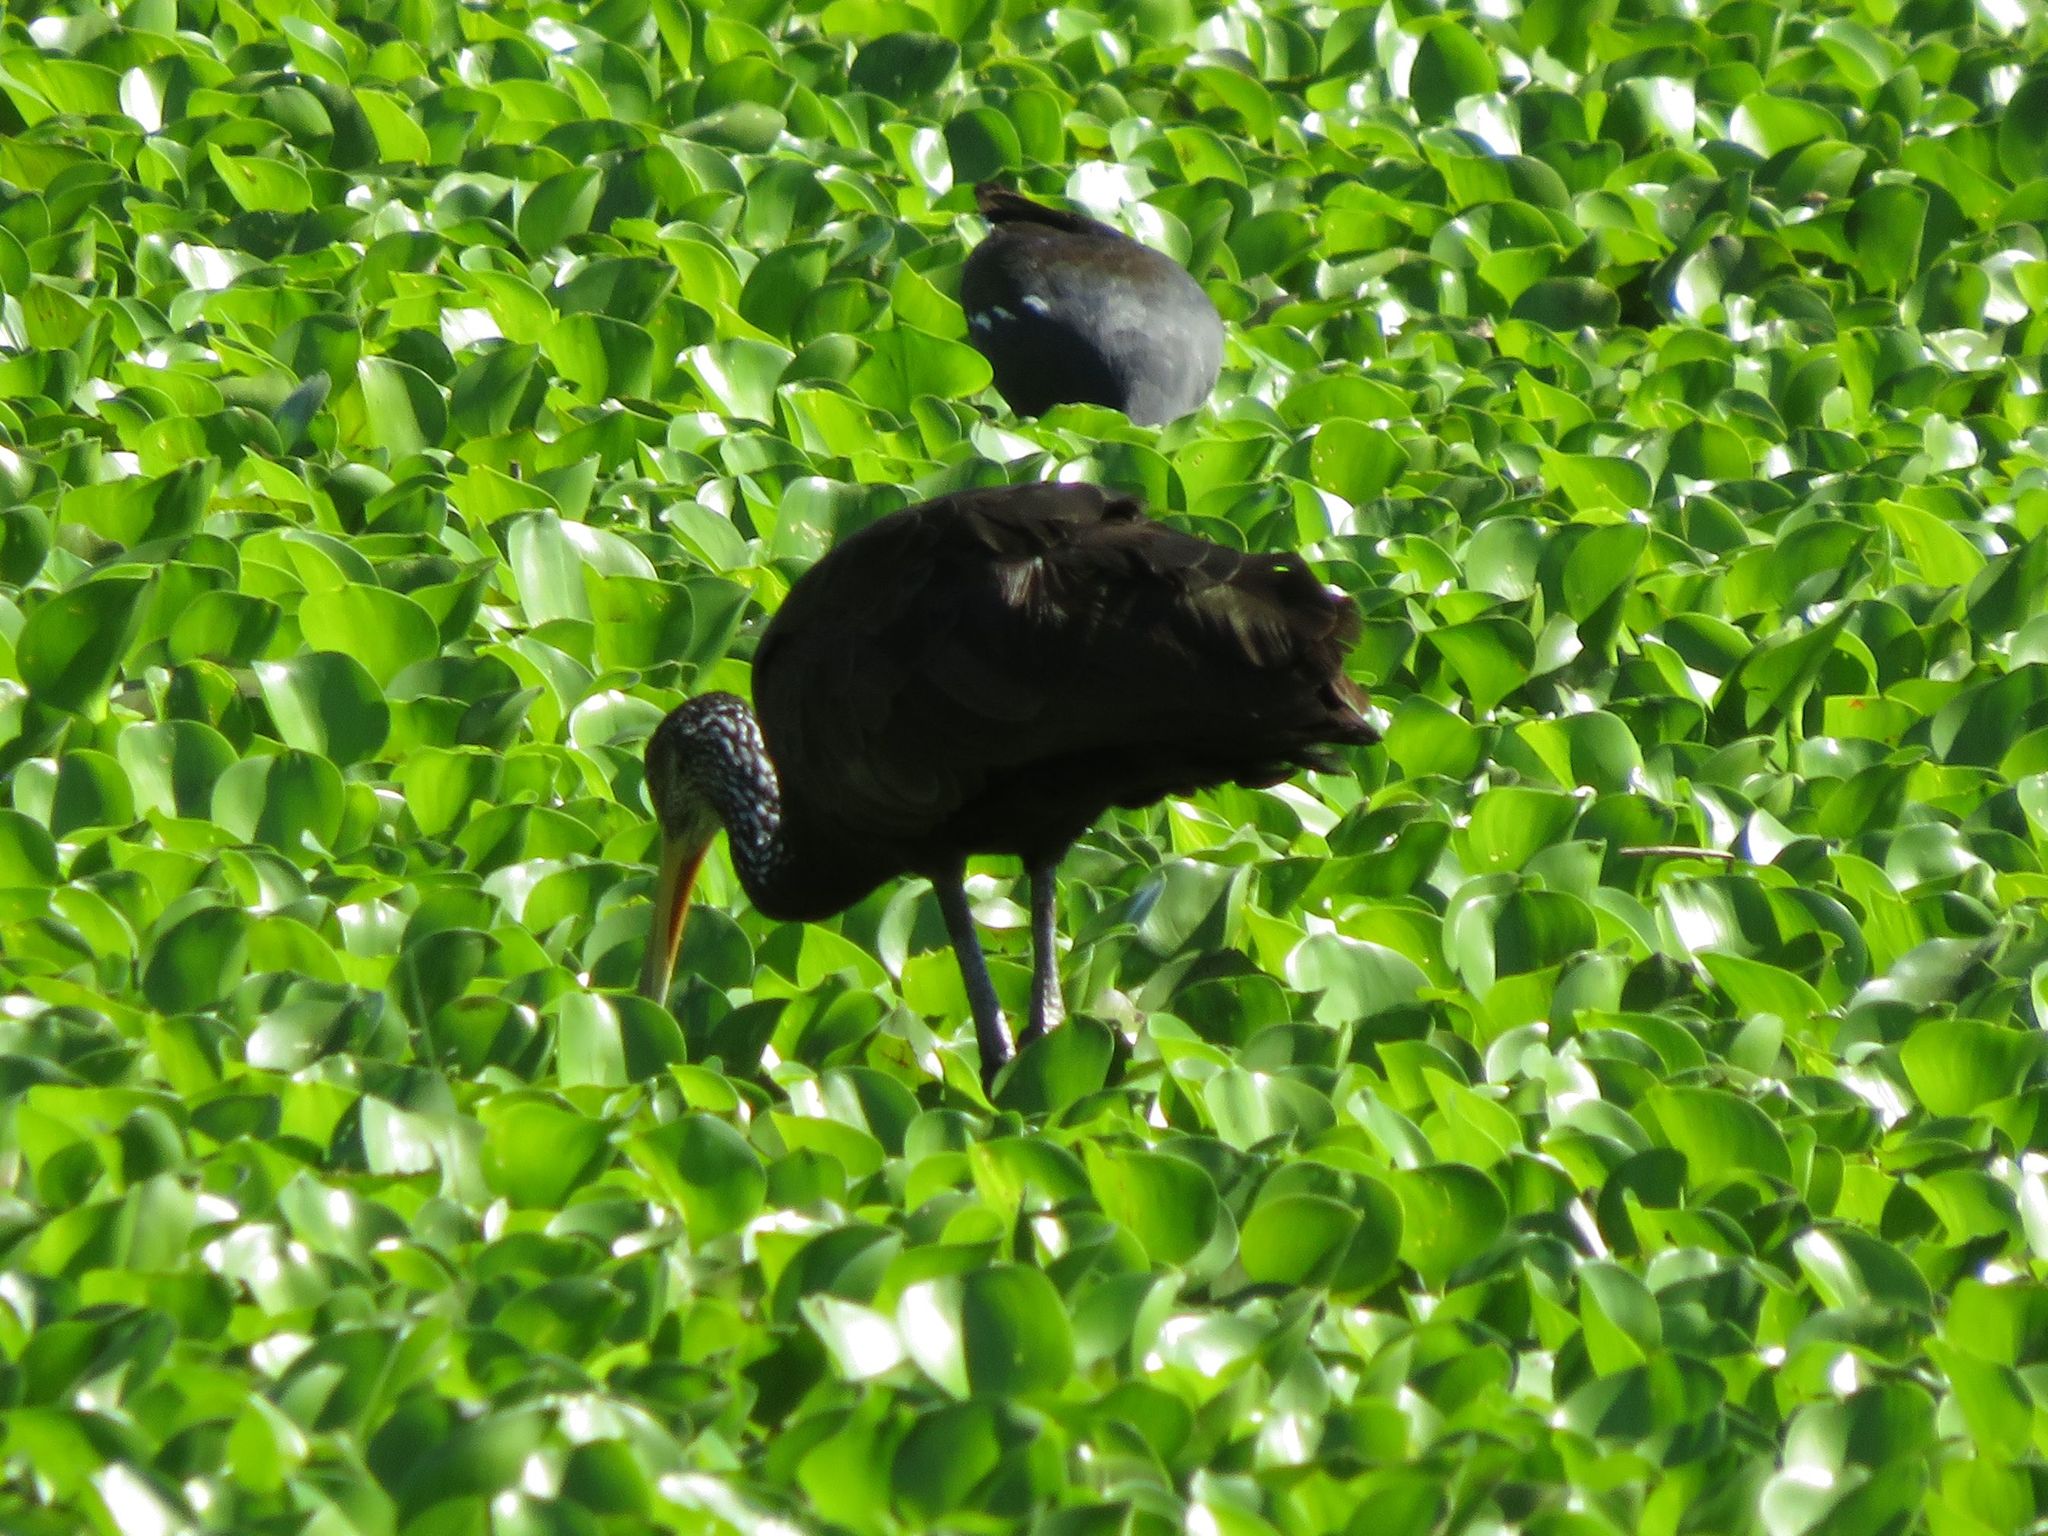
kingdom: Animalia
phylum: Chordata
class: Aves
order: Gruiformes
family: Aramidae
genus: Aramus
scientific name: Aramus guarauna
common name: Limpkin
